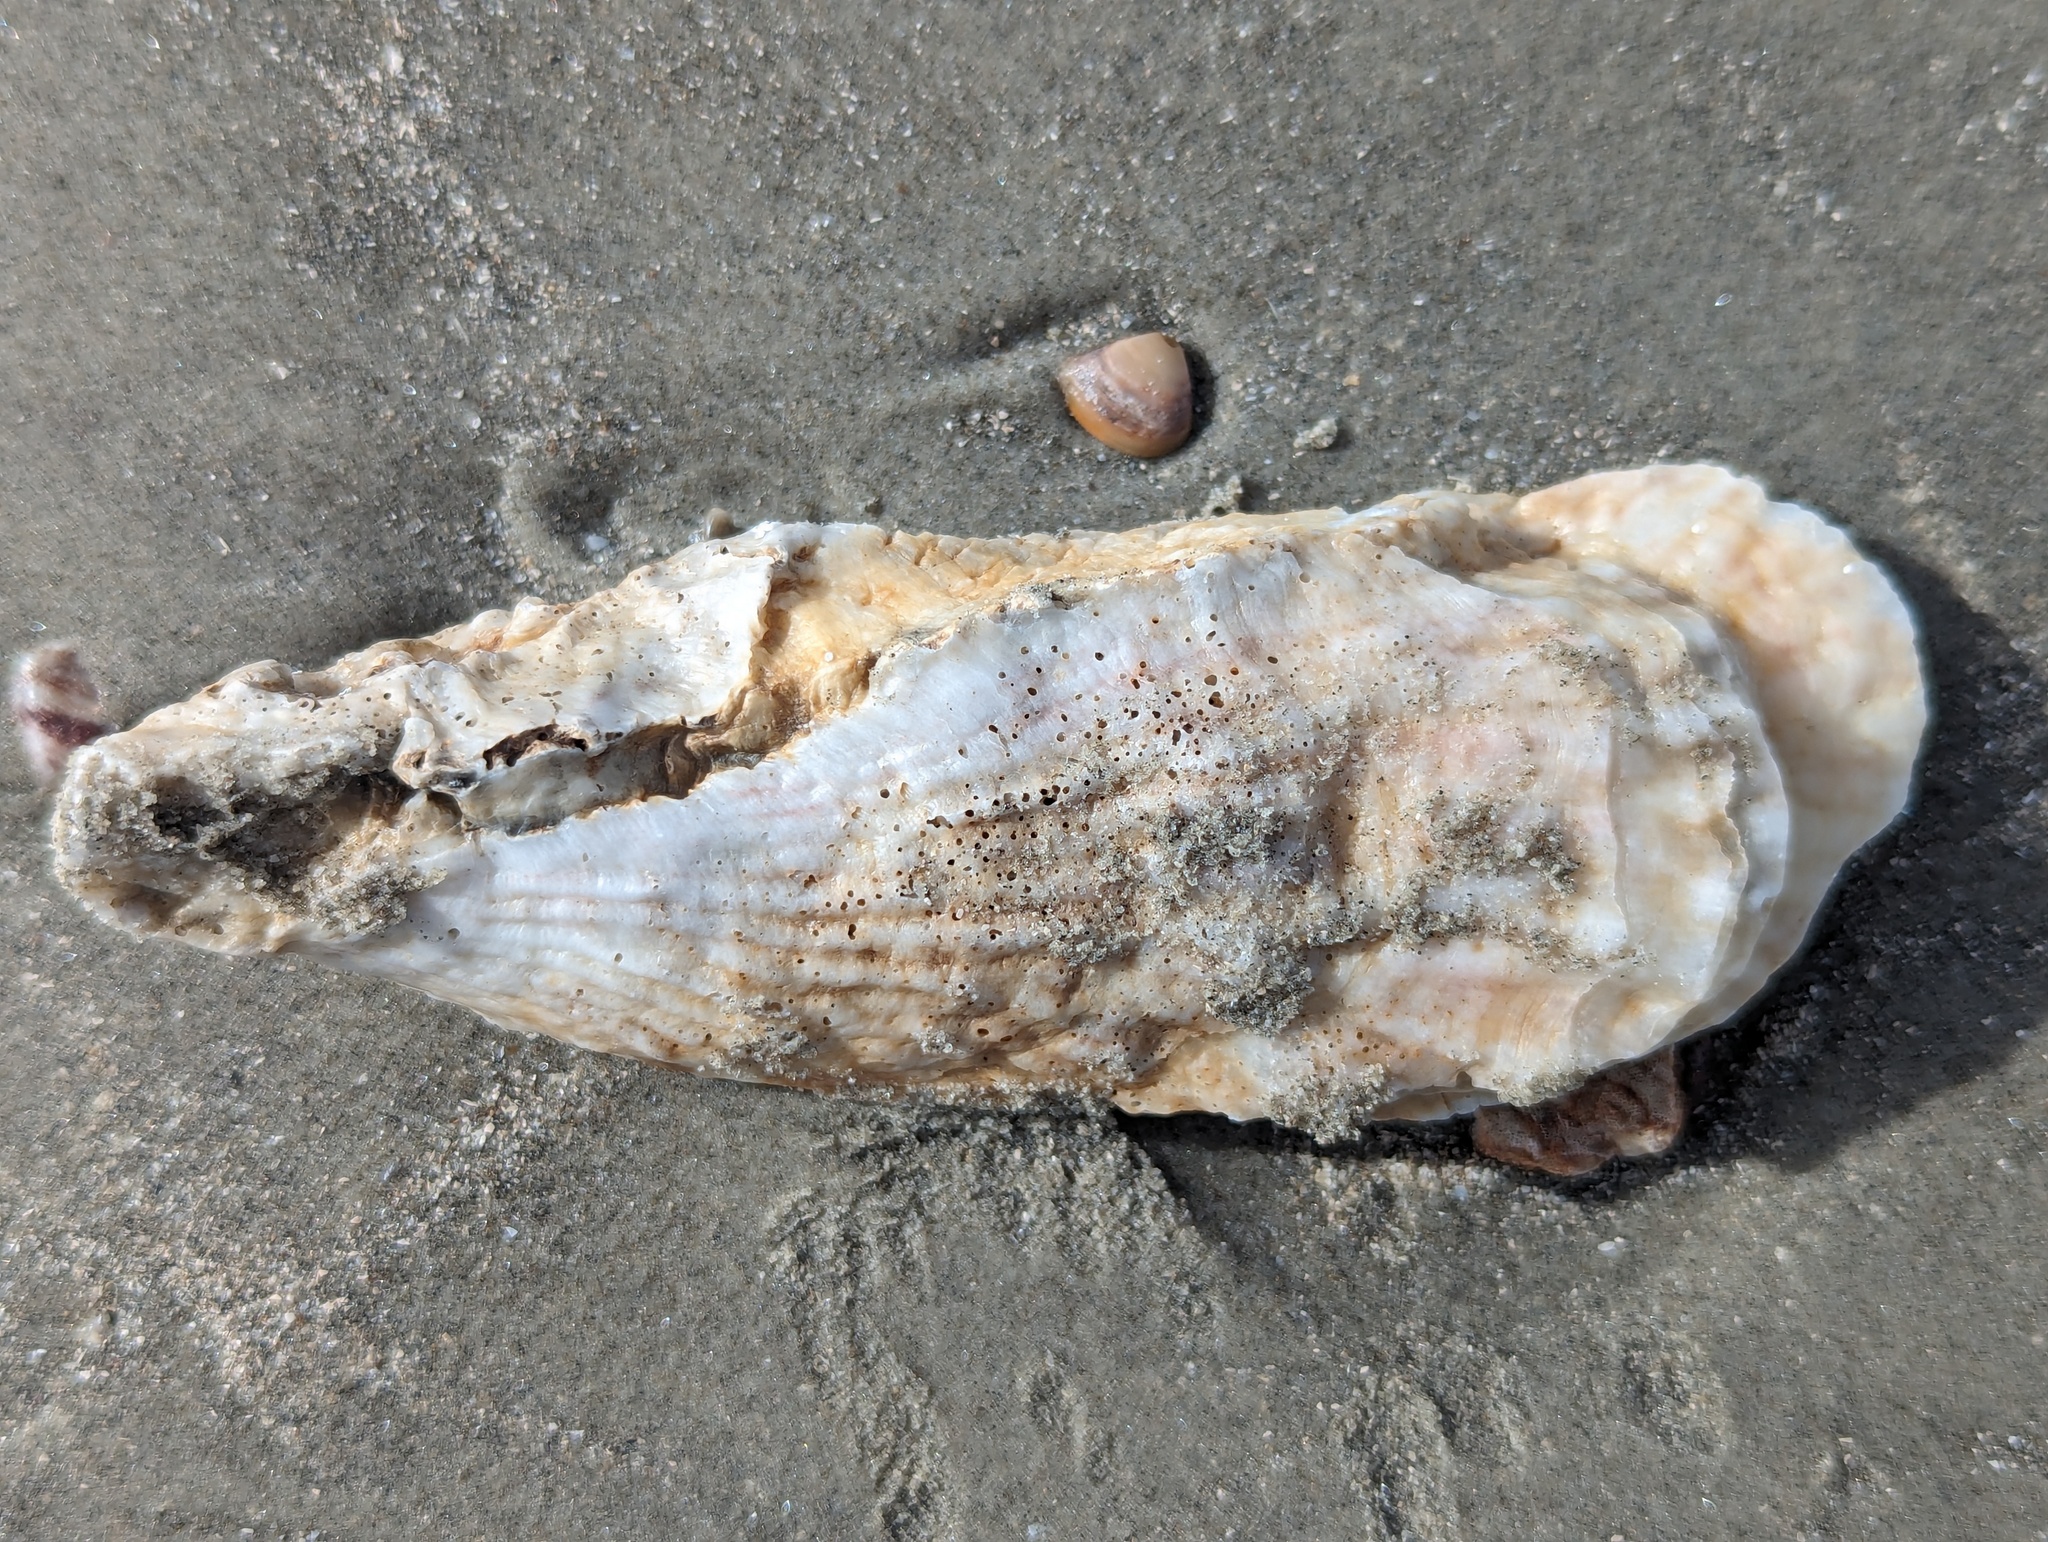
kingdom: Animalia
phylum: Mollusca
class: Bivalvia
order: Ostreida
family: Ostreidae
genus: Crassostrea
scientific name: Crassostrea virginica
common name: American oyster
